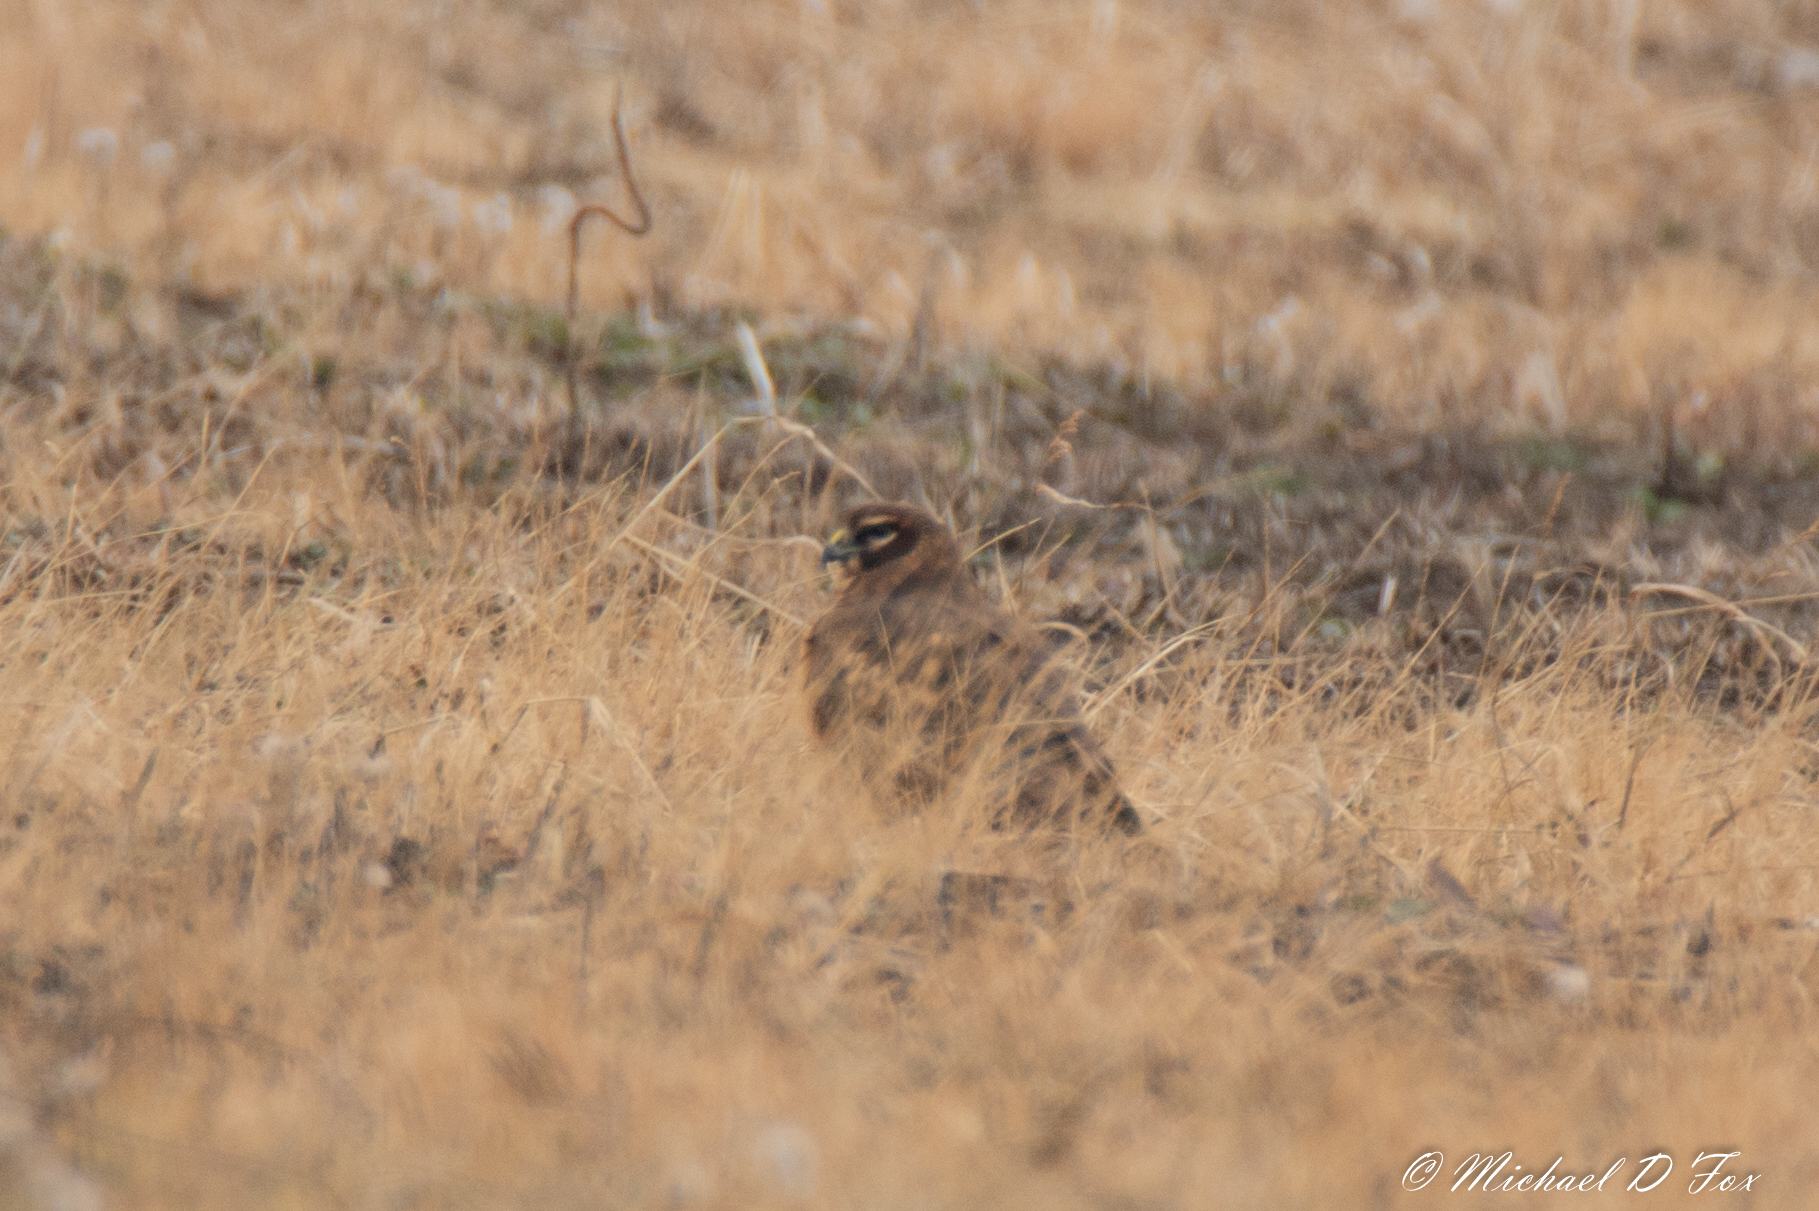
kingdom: Animalia
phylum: Chordata
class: Aves
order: Accipitriformes
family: Accipitridae
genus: Circus
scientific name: Circus cyaneus
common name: Hen harrier
